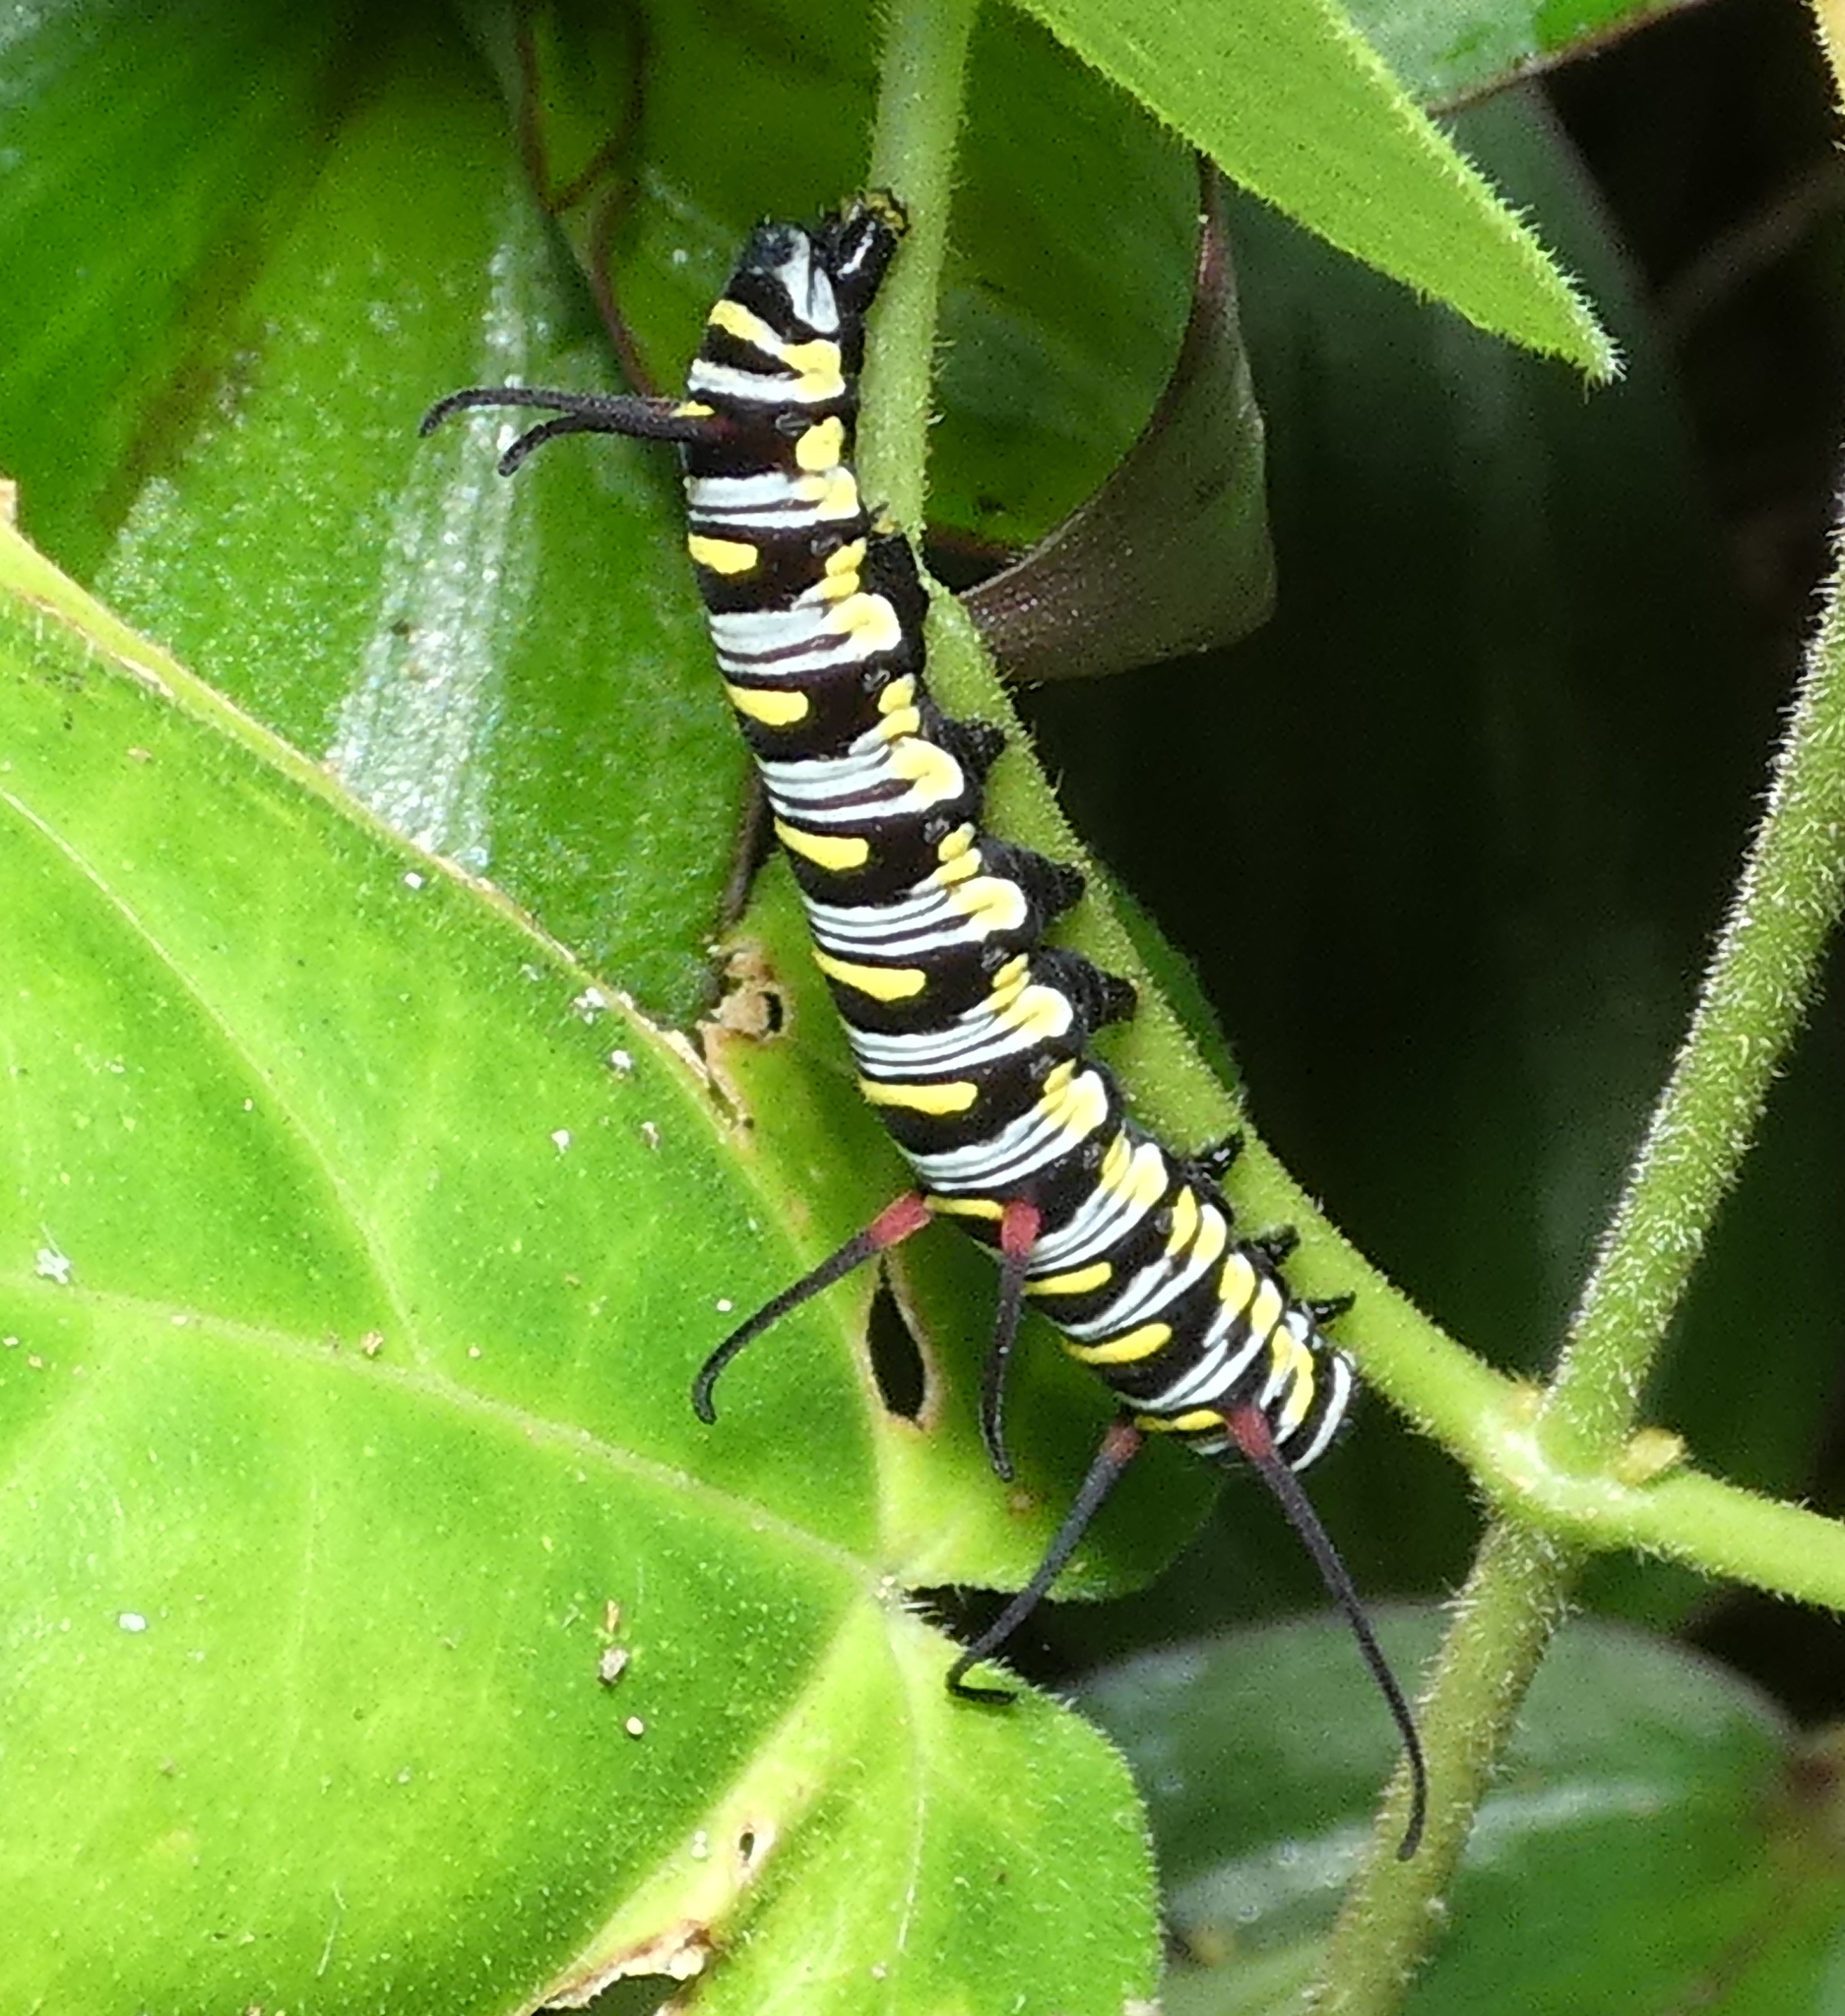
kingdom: Animalia
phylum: Arthropoda
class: Insecta
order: Lepidoptera
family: Nymphalidae
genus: Danaus
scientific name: Danaus gilippus
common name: Queen
